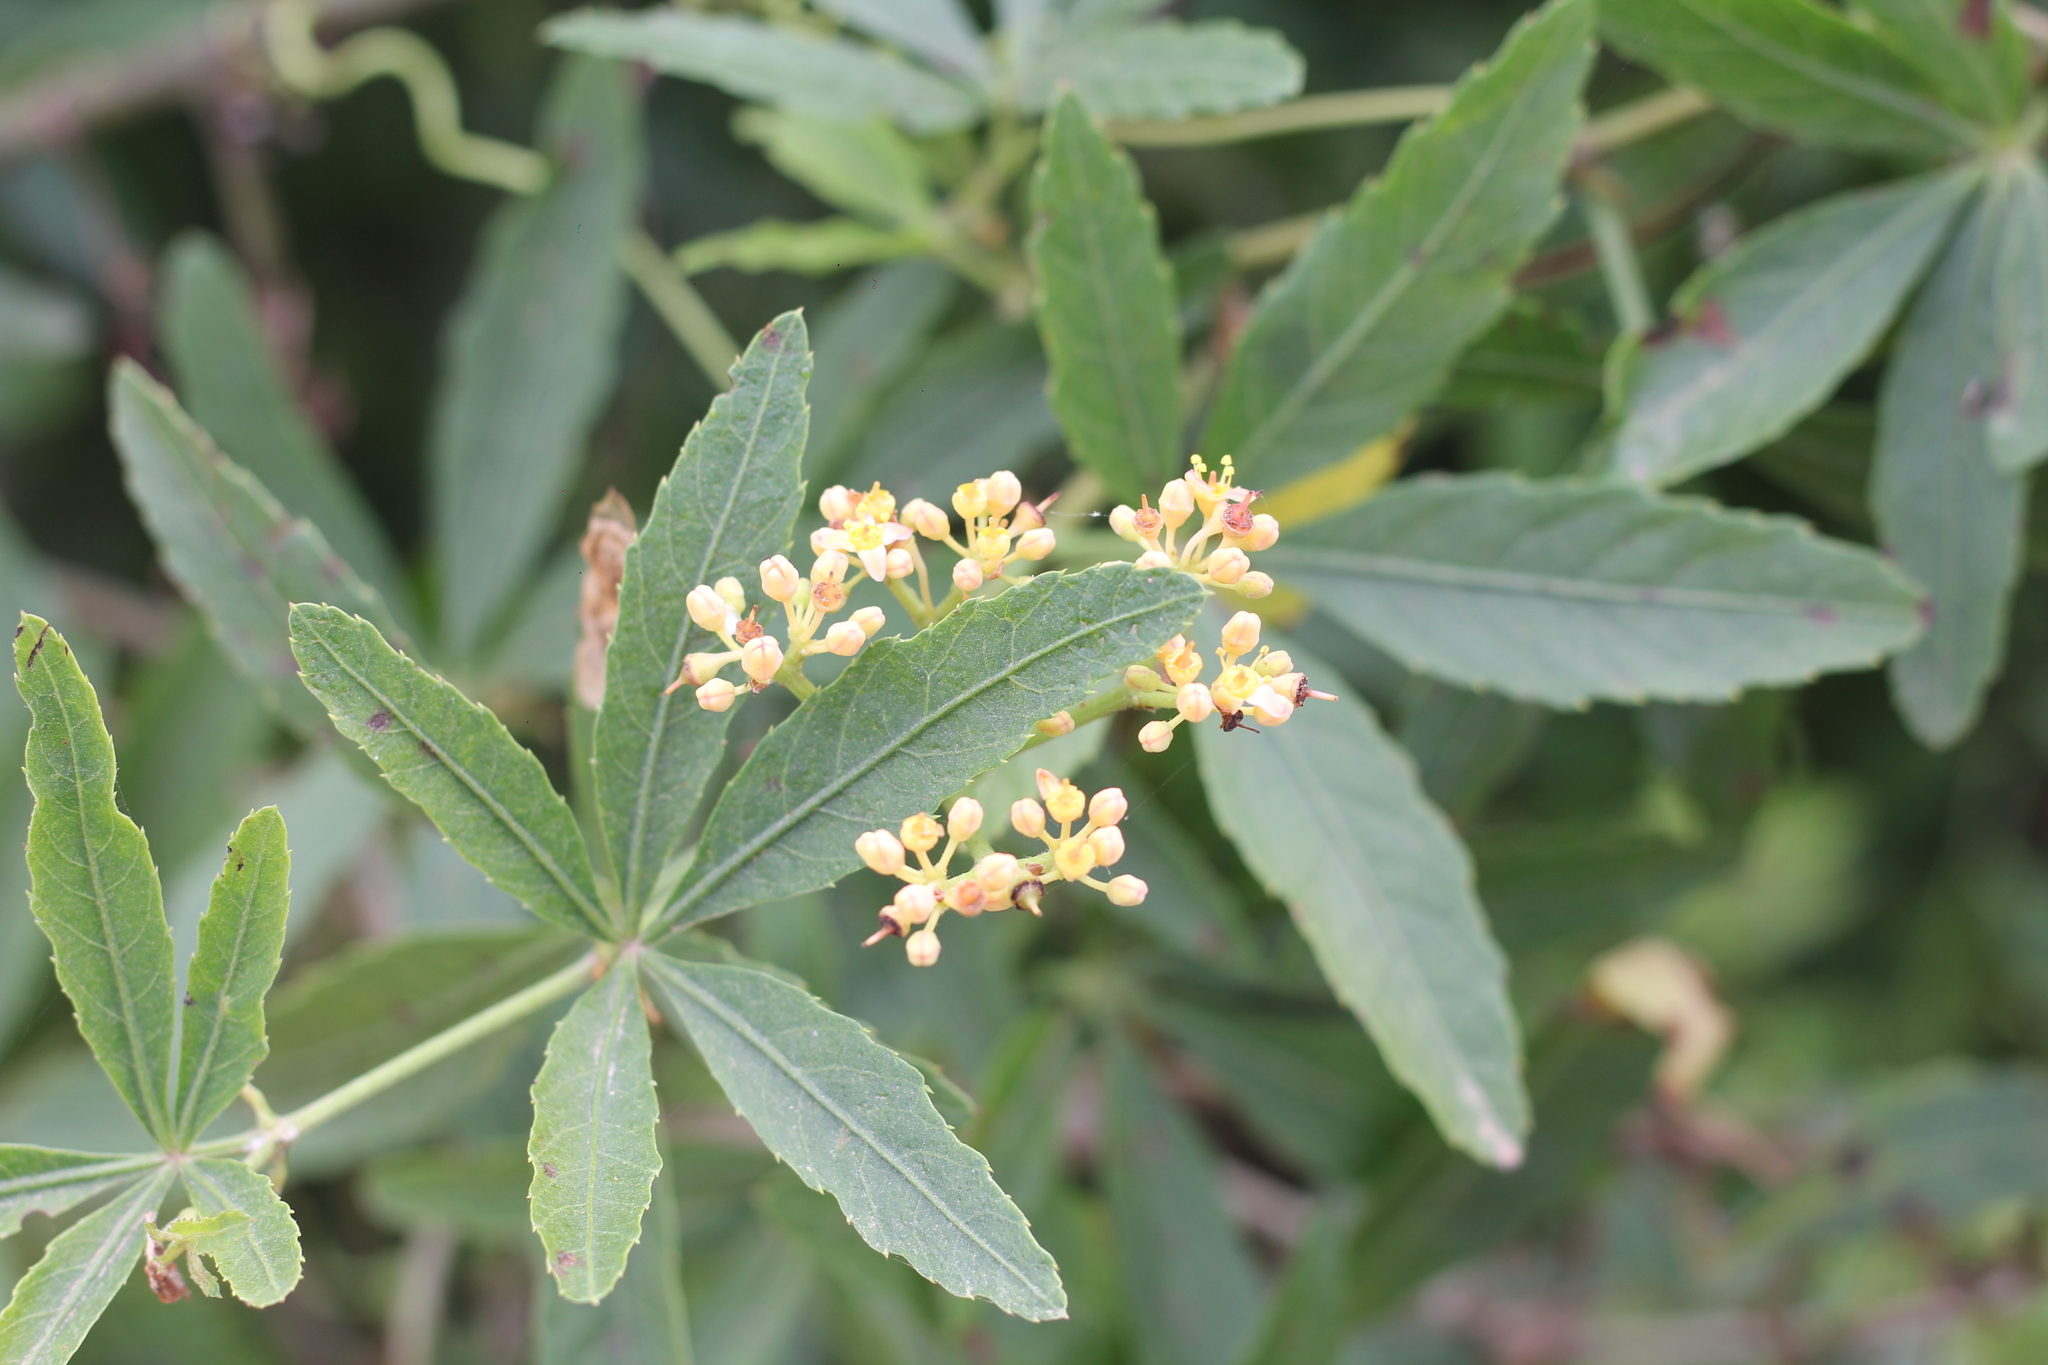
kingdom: Plantae
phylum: Tracheophyta
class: Magnoliopsida
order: Vitales
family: Vitaceae
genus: Cissus
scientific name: Cissus palmata
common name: Grape
